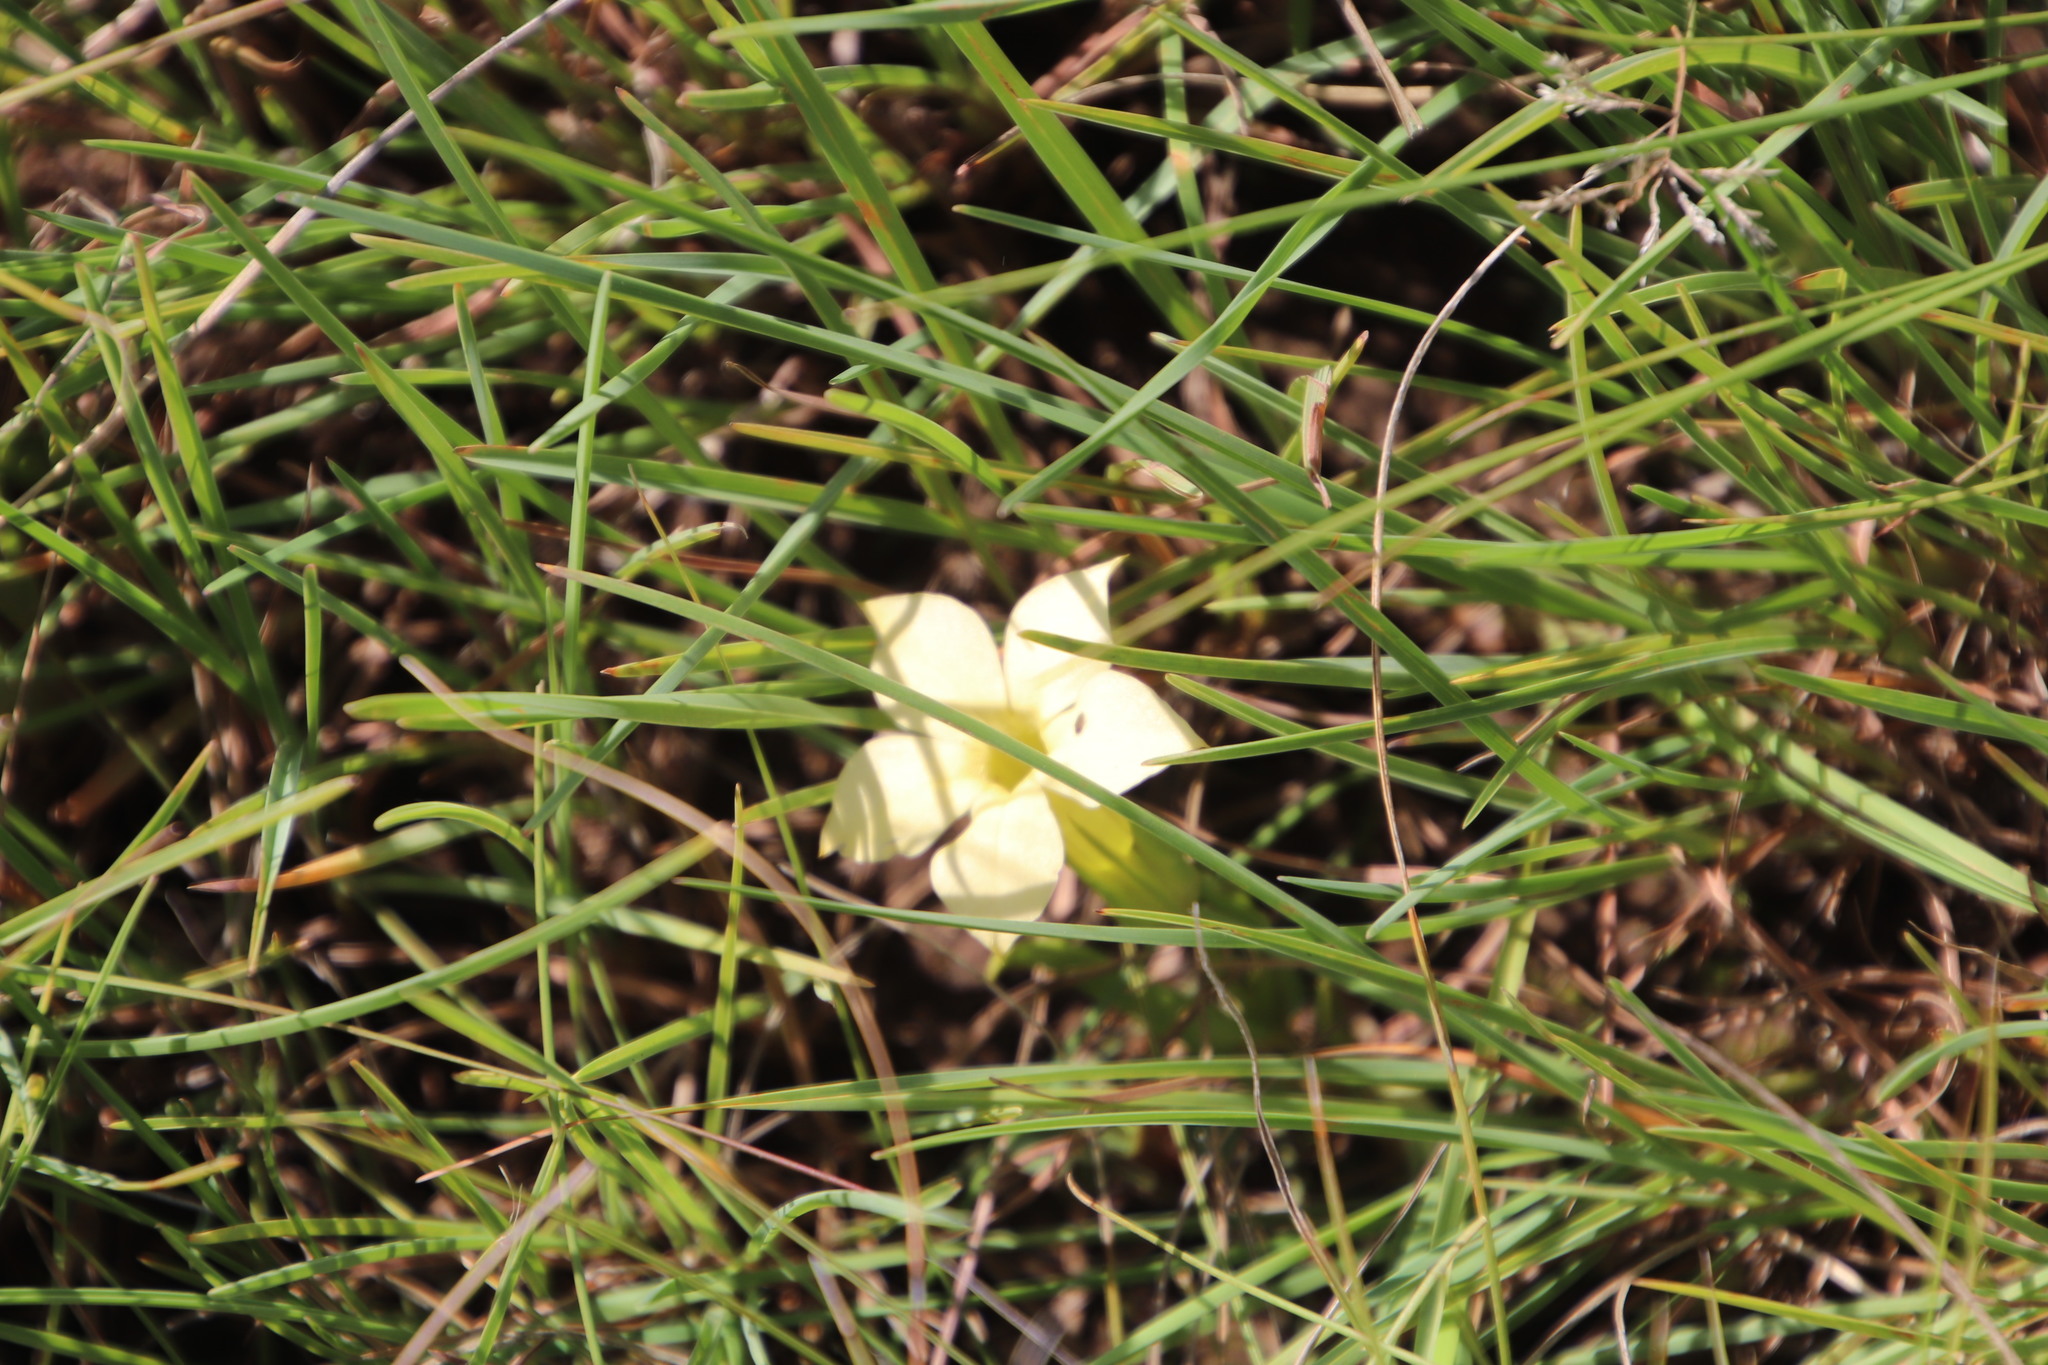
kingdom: Plantae
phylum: Tracheophyta
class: Magnoliopsida
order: Gentianales
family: Gentianaceae
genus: Exochaenium
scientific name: Exochaenium grande
